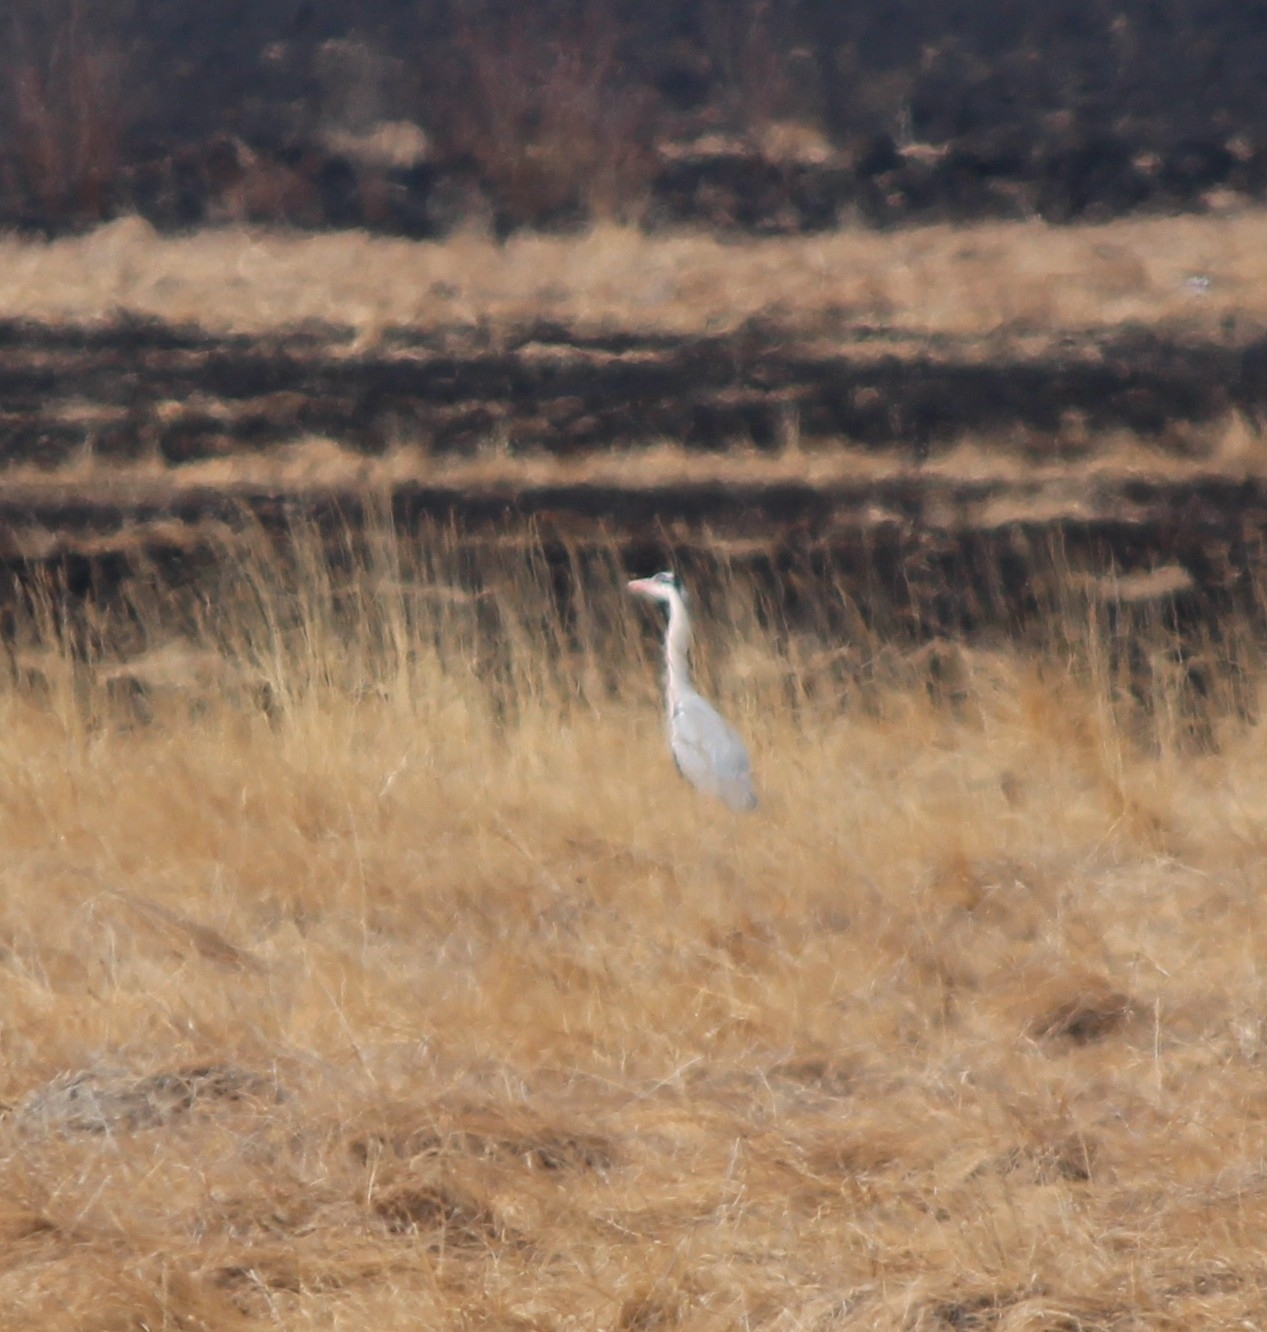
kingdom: Animalia
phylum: Chordata
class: Aves
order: Pelecaniformes
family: Ardeidae
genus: Ardea
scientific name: Ardea cinerea
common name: Grey heron
